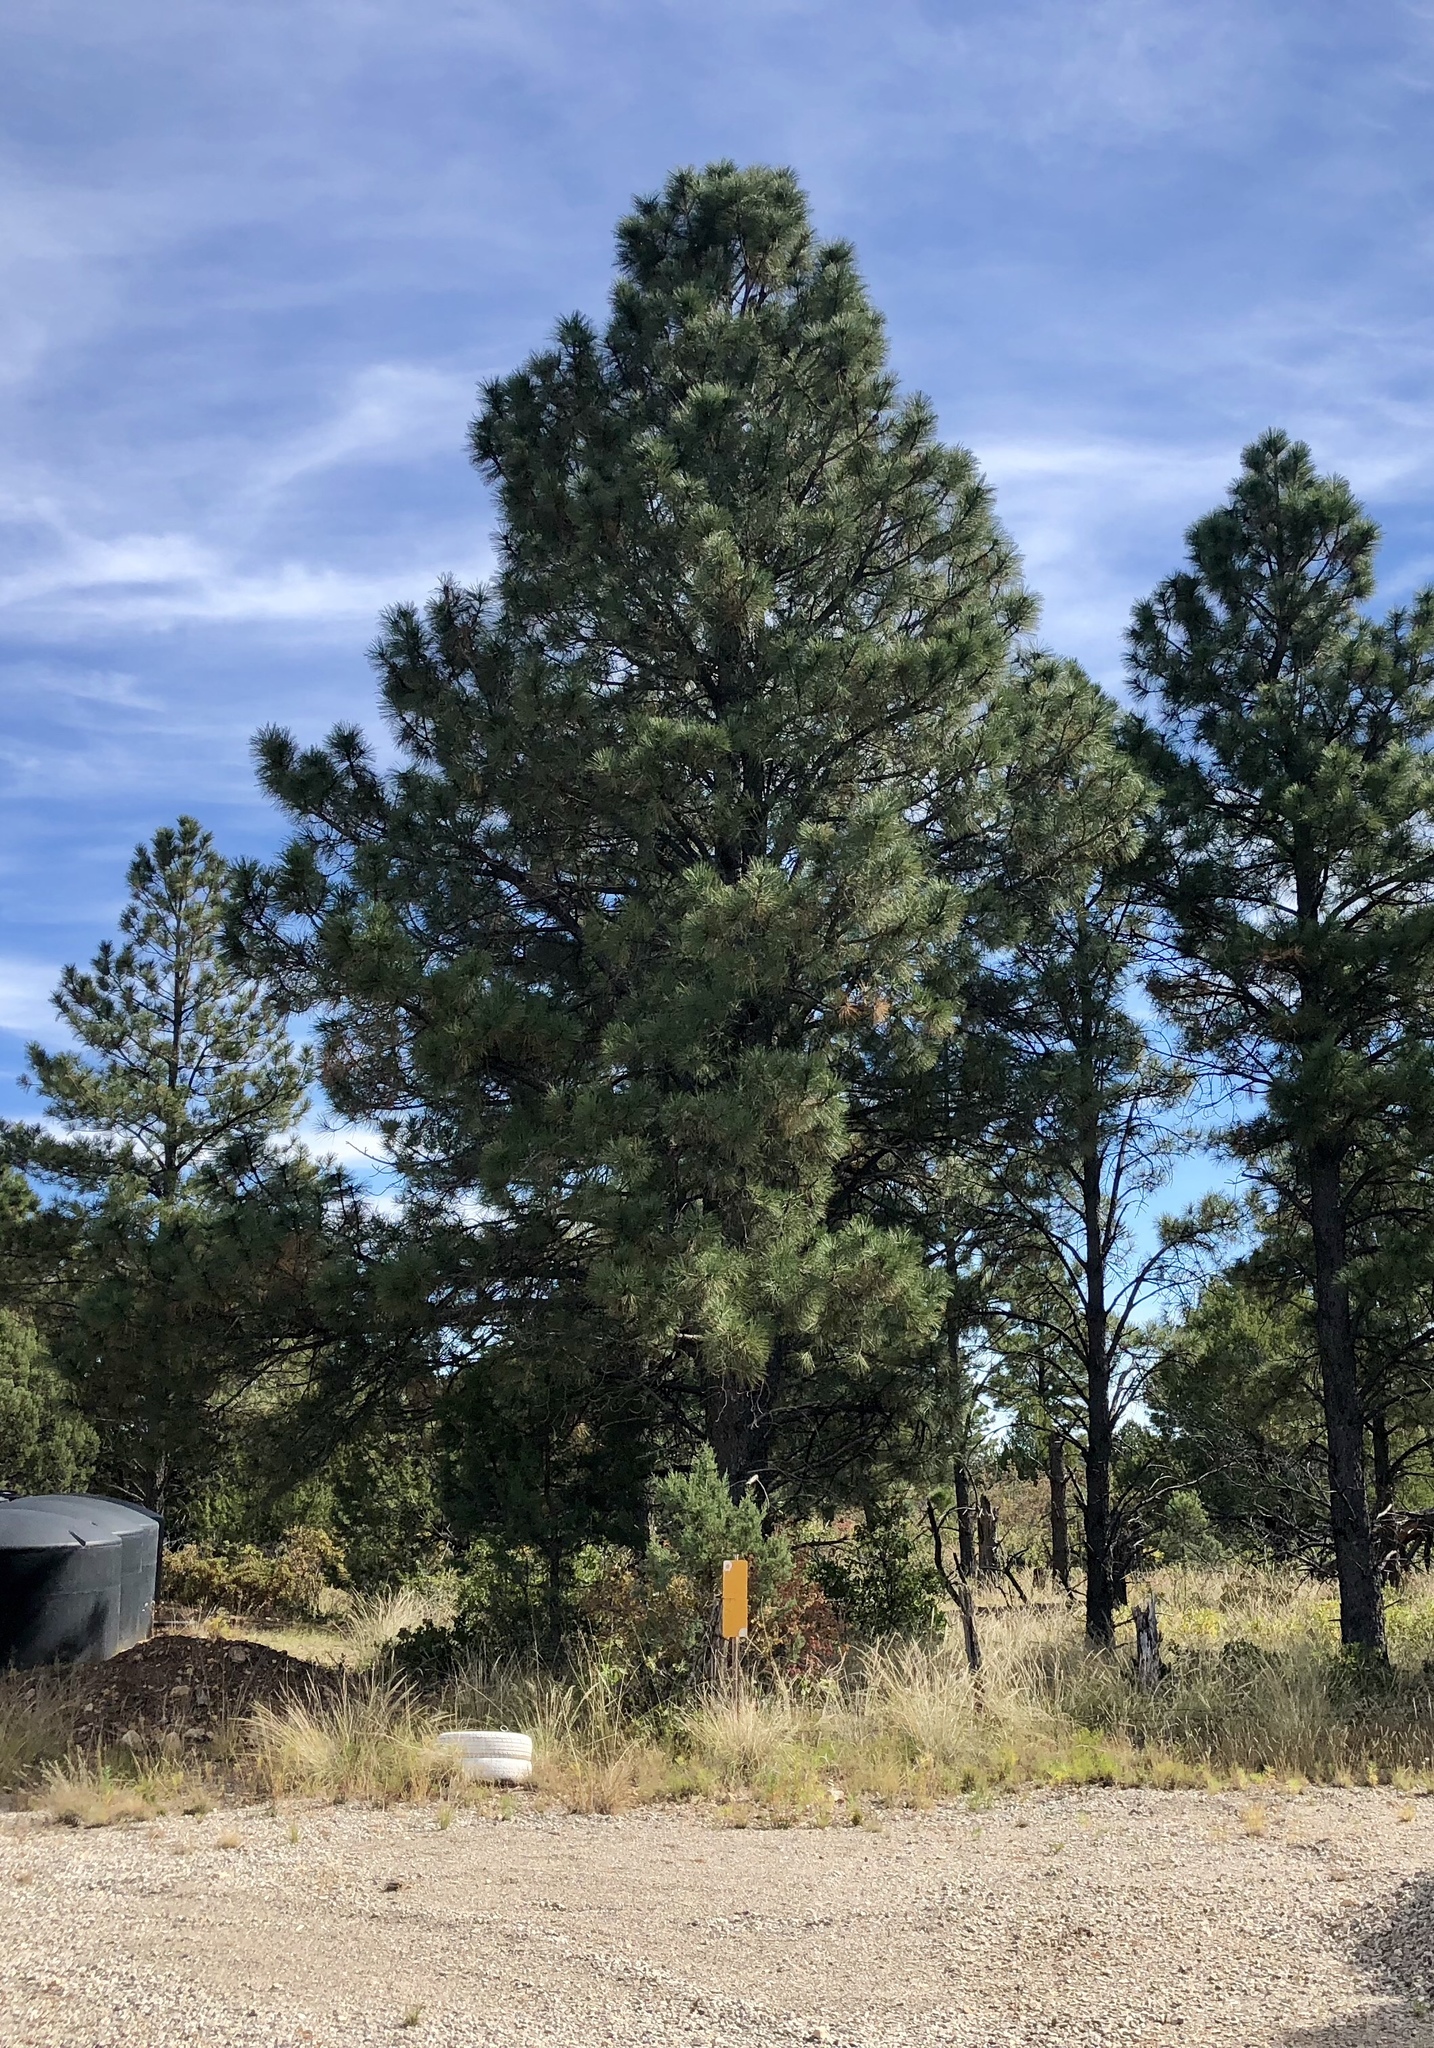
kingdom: Plantae
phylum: Tracheophyta
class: Pinopsida
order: Pinales
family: Pinaceae
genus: Pinus
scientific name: Pinus ponderosa
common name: Western yellow-pine
